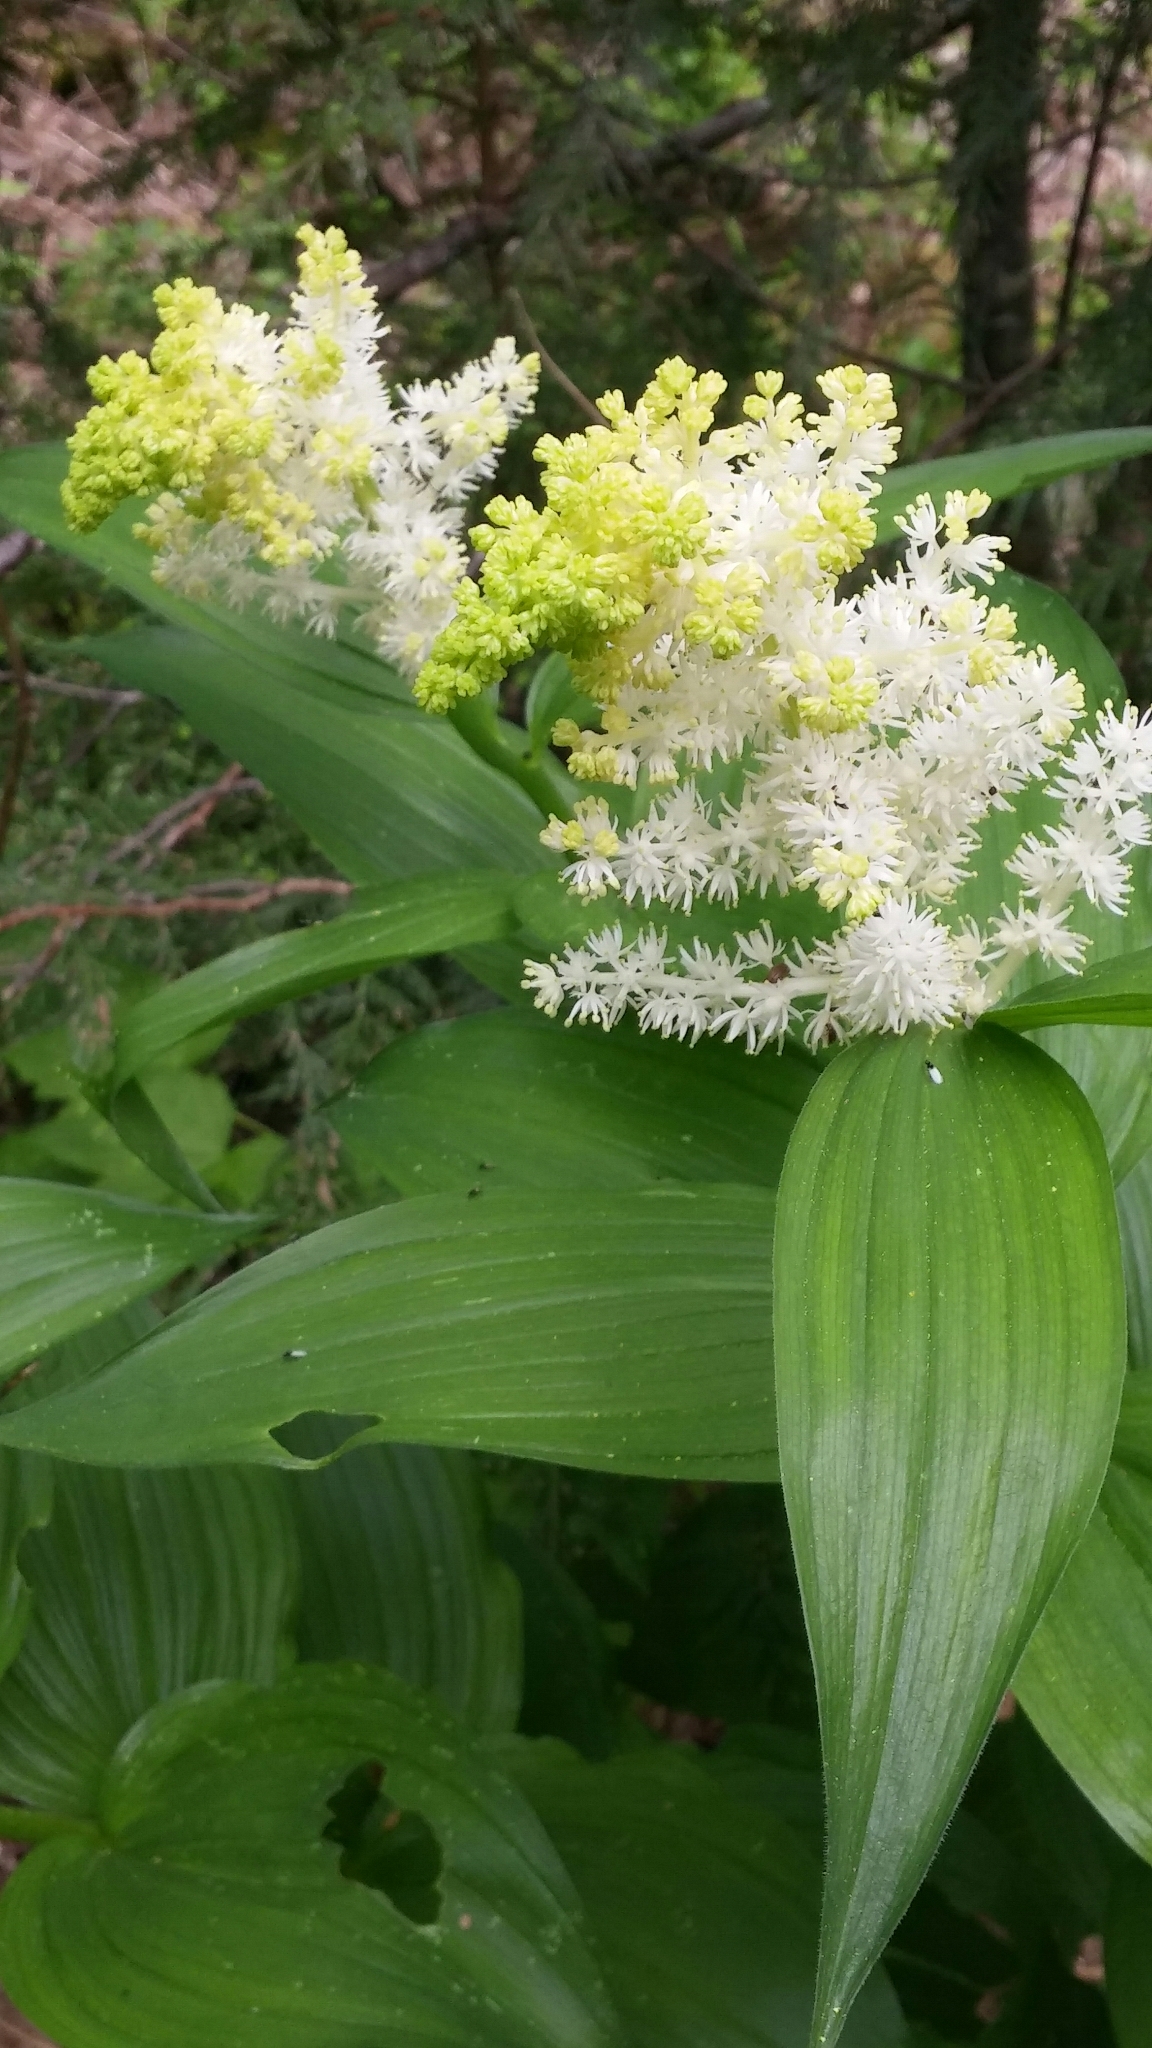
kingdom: Plantae
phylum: Tracheophyta
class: Liliopsida
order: Asparagales
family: Asparagaceae
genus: Maianthemum
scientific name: Maianthemum racemosum
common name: False spikenard
